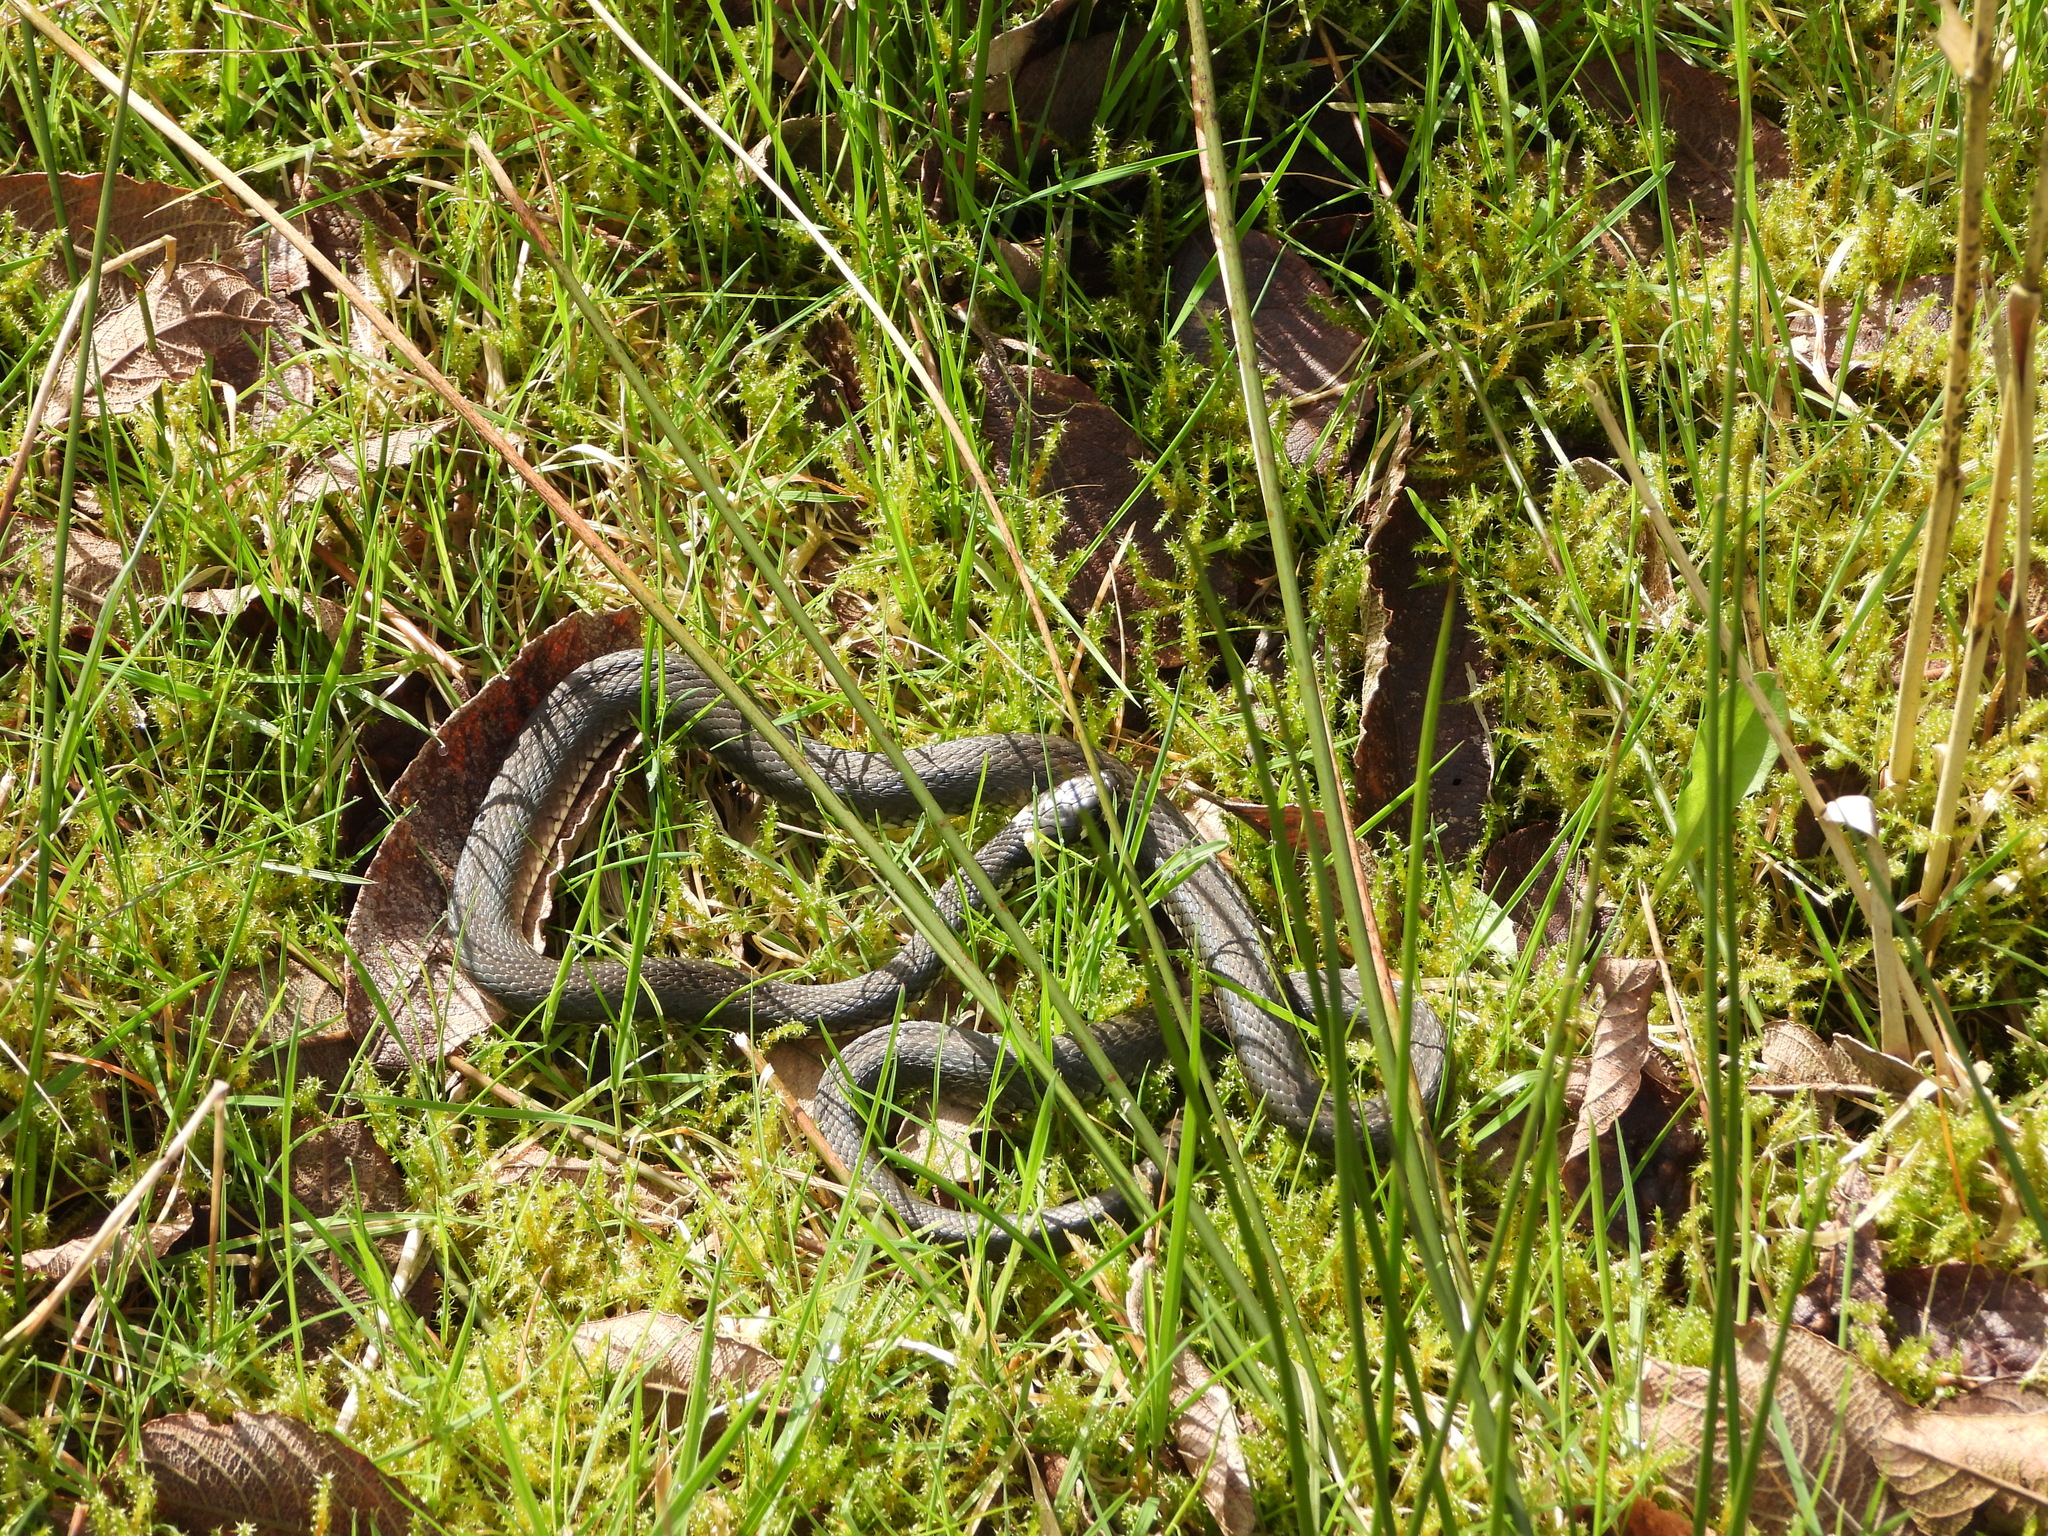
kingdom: Animalia
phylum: Chordata
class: Squamata
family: Colubridae
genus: Natrix
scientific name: Natrix natrix
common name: Grass snake
